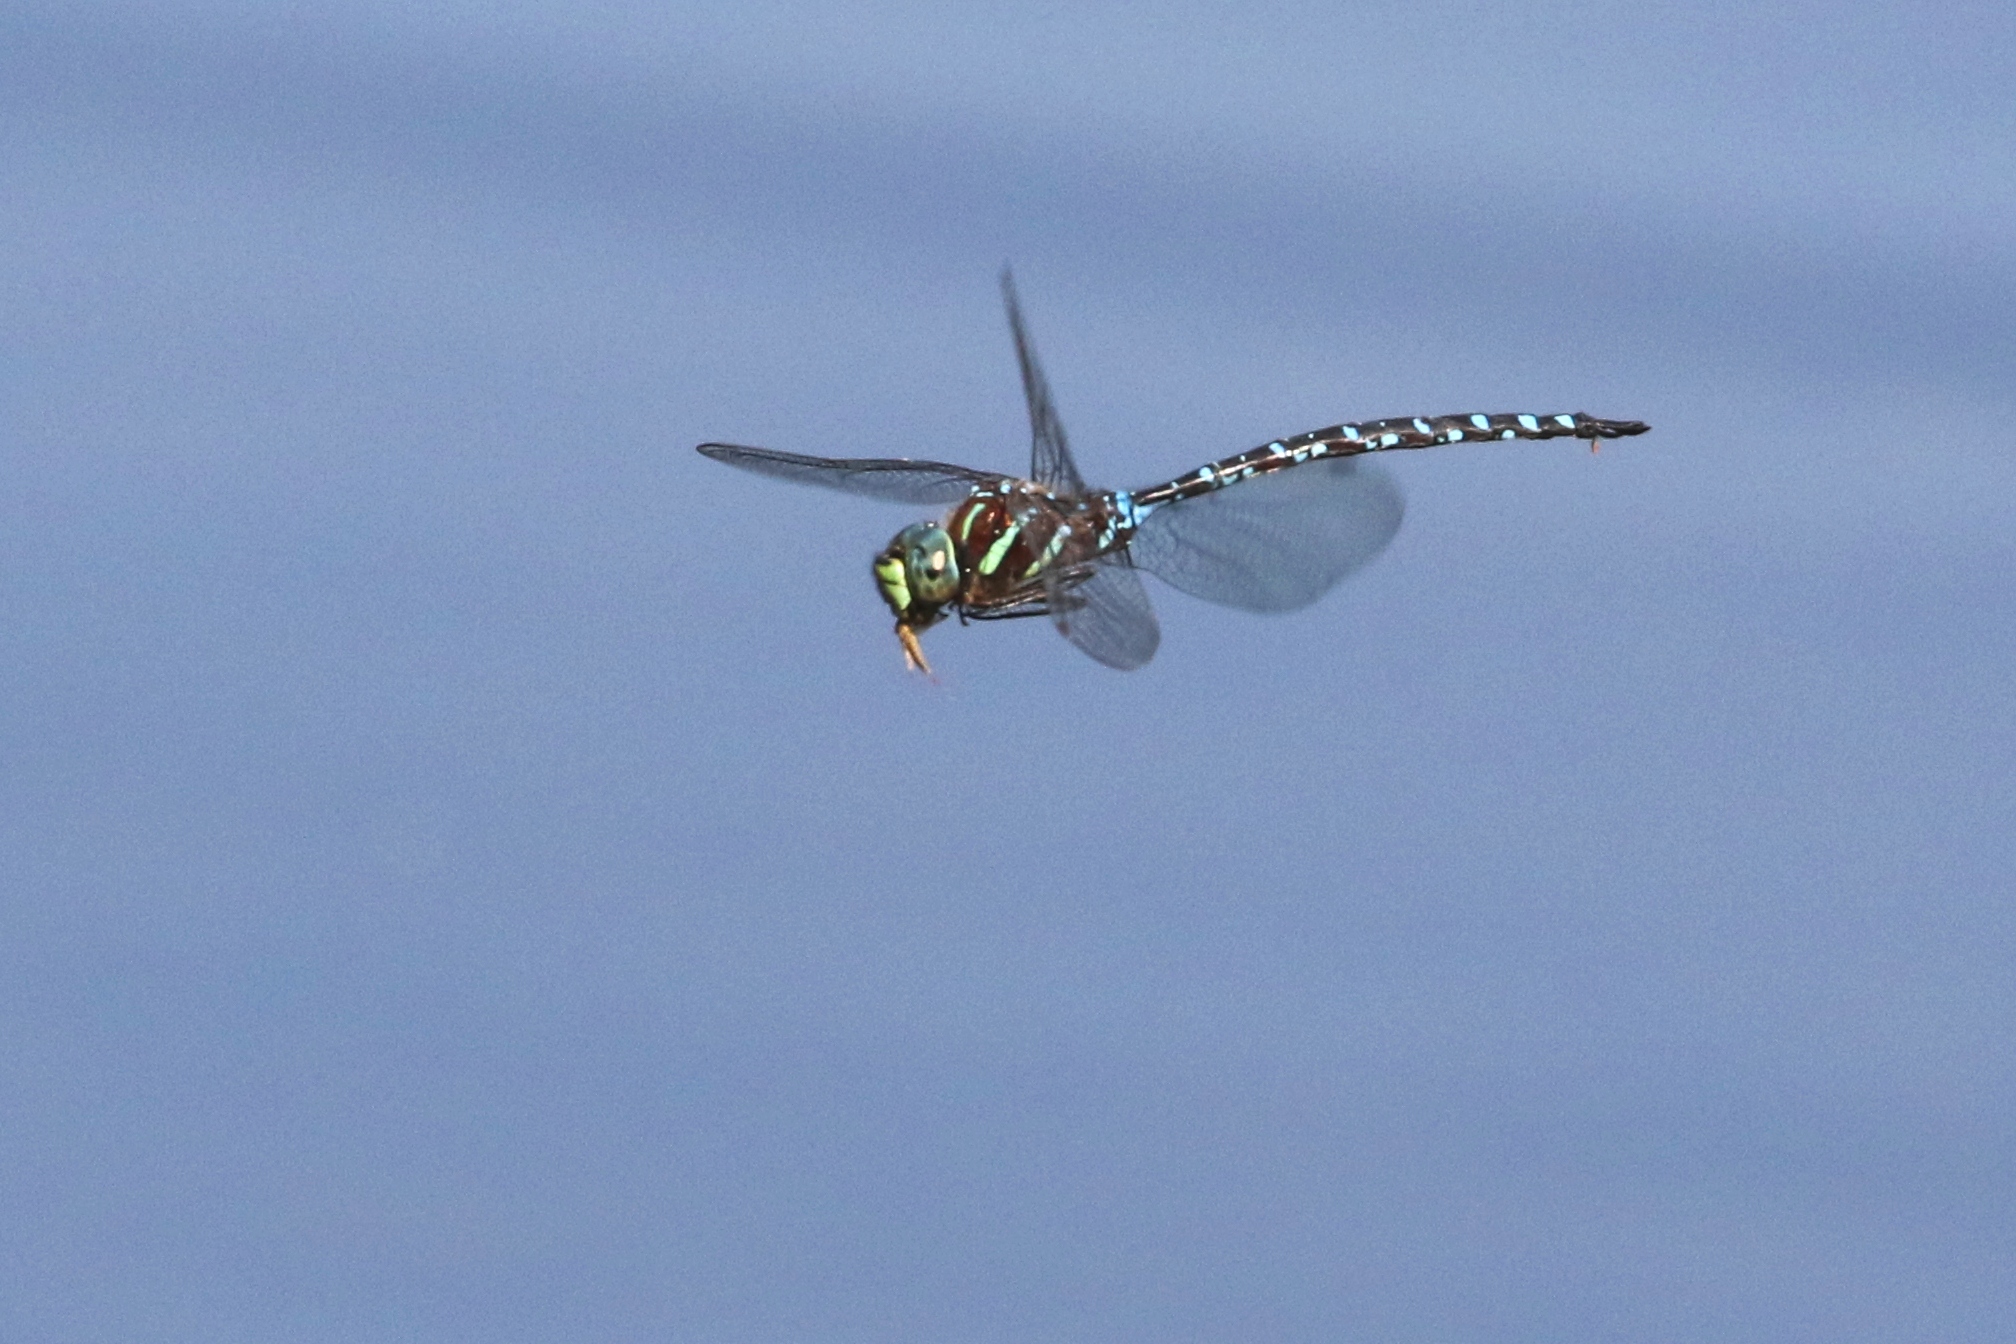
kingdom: Animalia
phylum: Arthropoda
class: Insecta
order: Odonata
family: Aeshnidae
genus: Aeshna
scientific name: Aeshna tuberculifera
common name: Aeschne à tubercules
